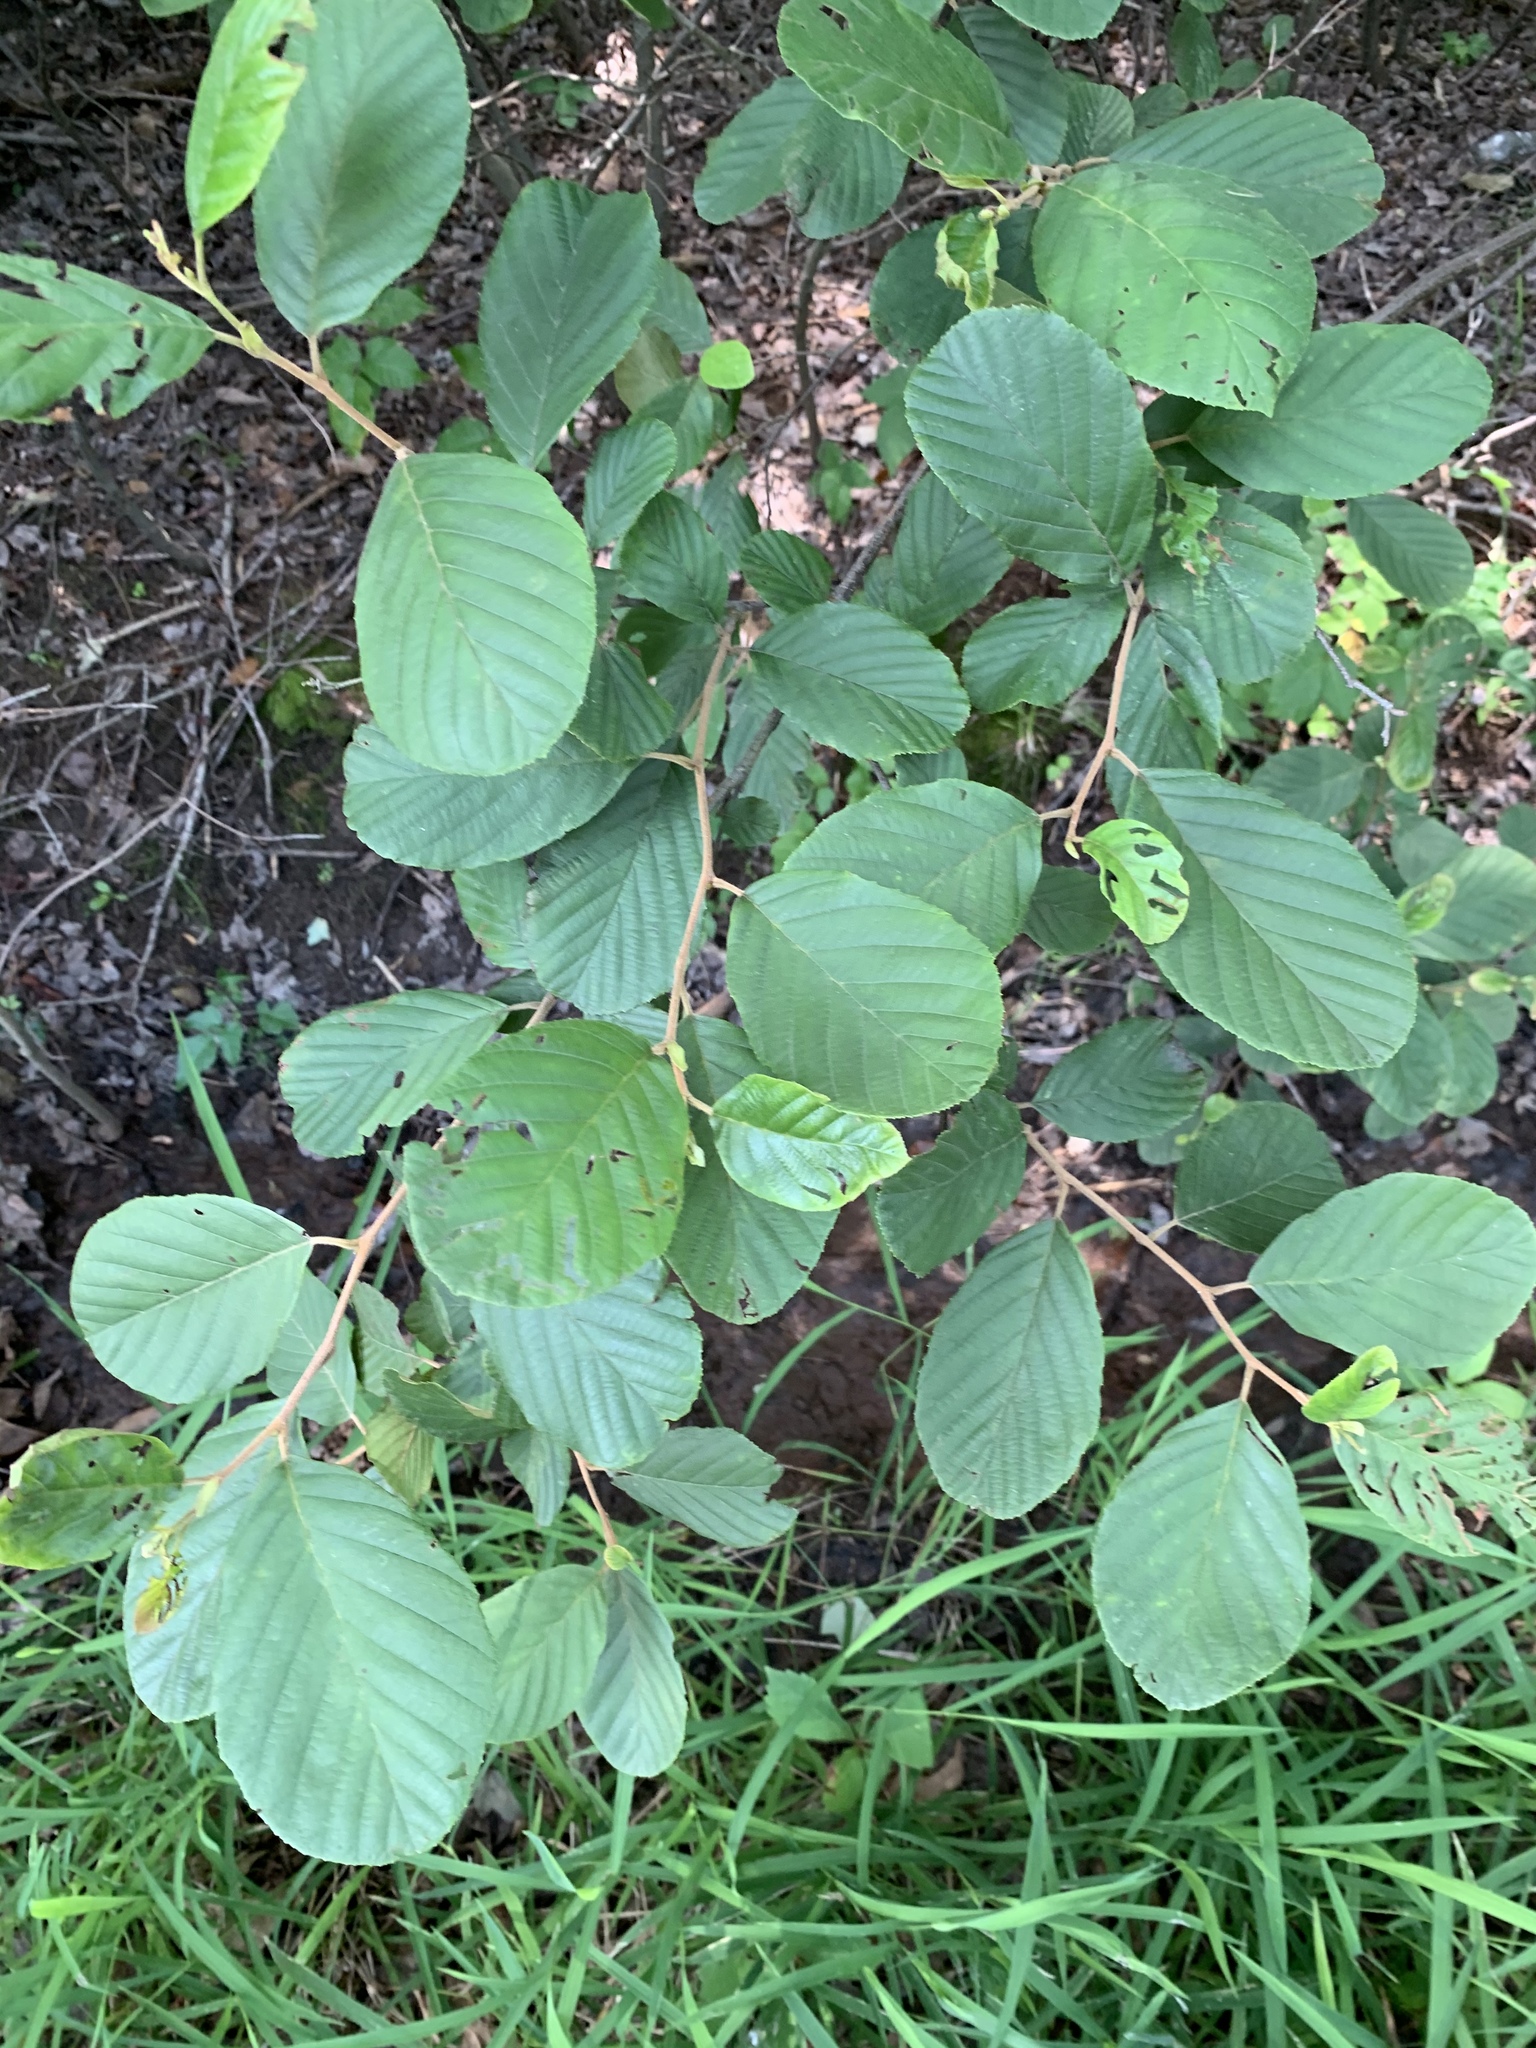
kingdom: Plantae
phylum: Tracheophyta
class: Magnoliopsida
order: Fagales
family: Betulaceae
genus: Alnus
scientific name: Alnus serrulata
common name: Hazel alder
